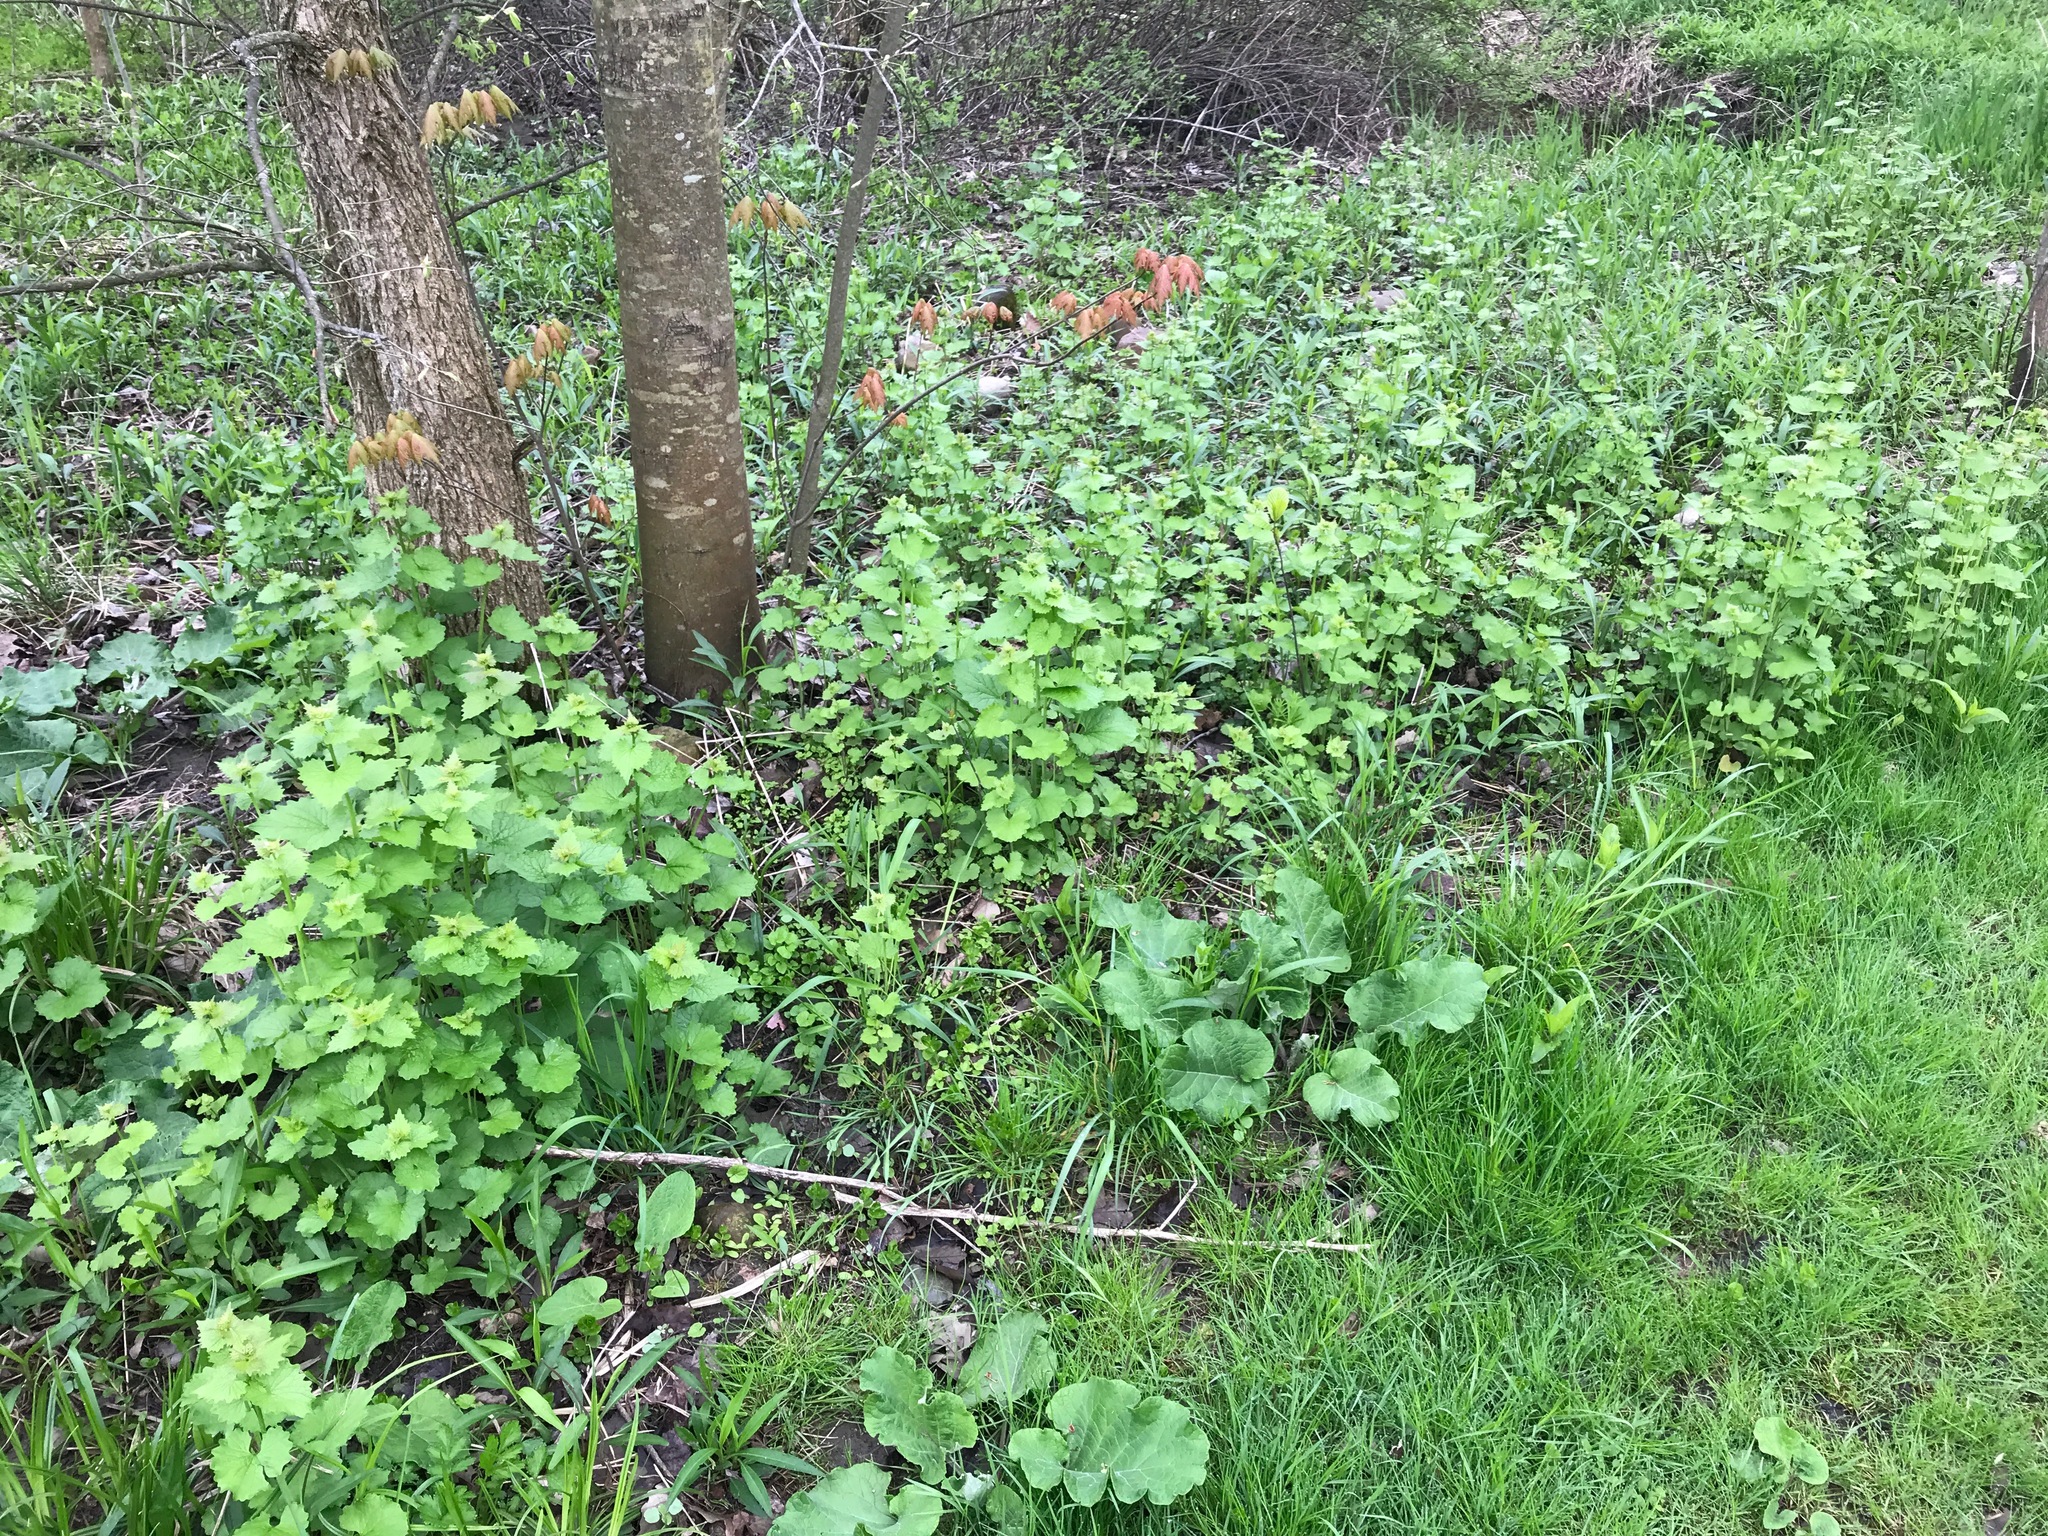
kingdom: Plantae
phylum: Tracheophyta
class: Magnoliopsida
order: Brassicales
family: Brassicaceae
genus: Alliaria
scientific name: Alliaria petiolata
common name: Garlic mustard
